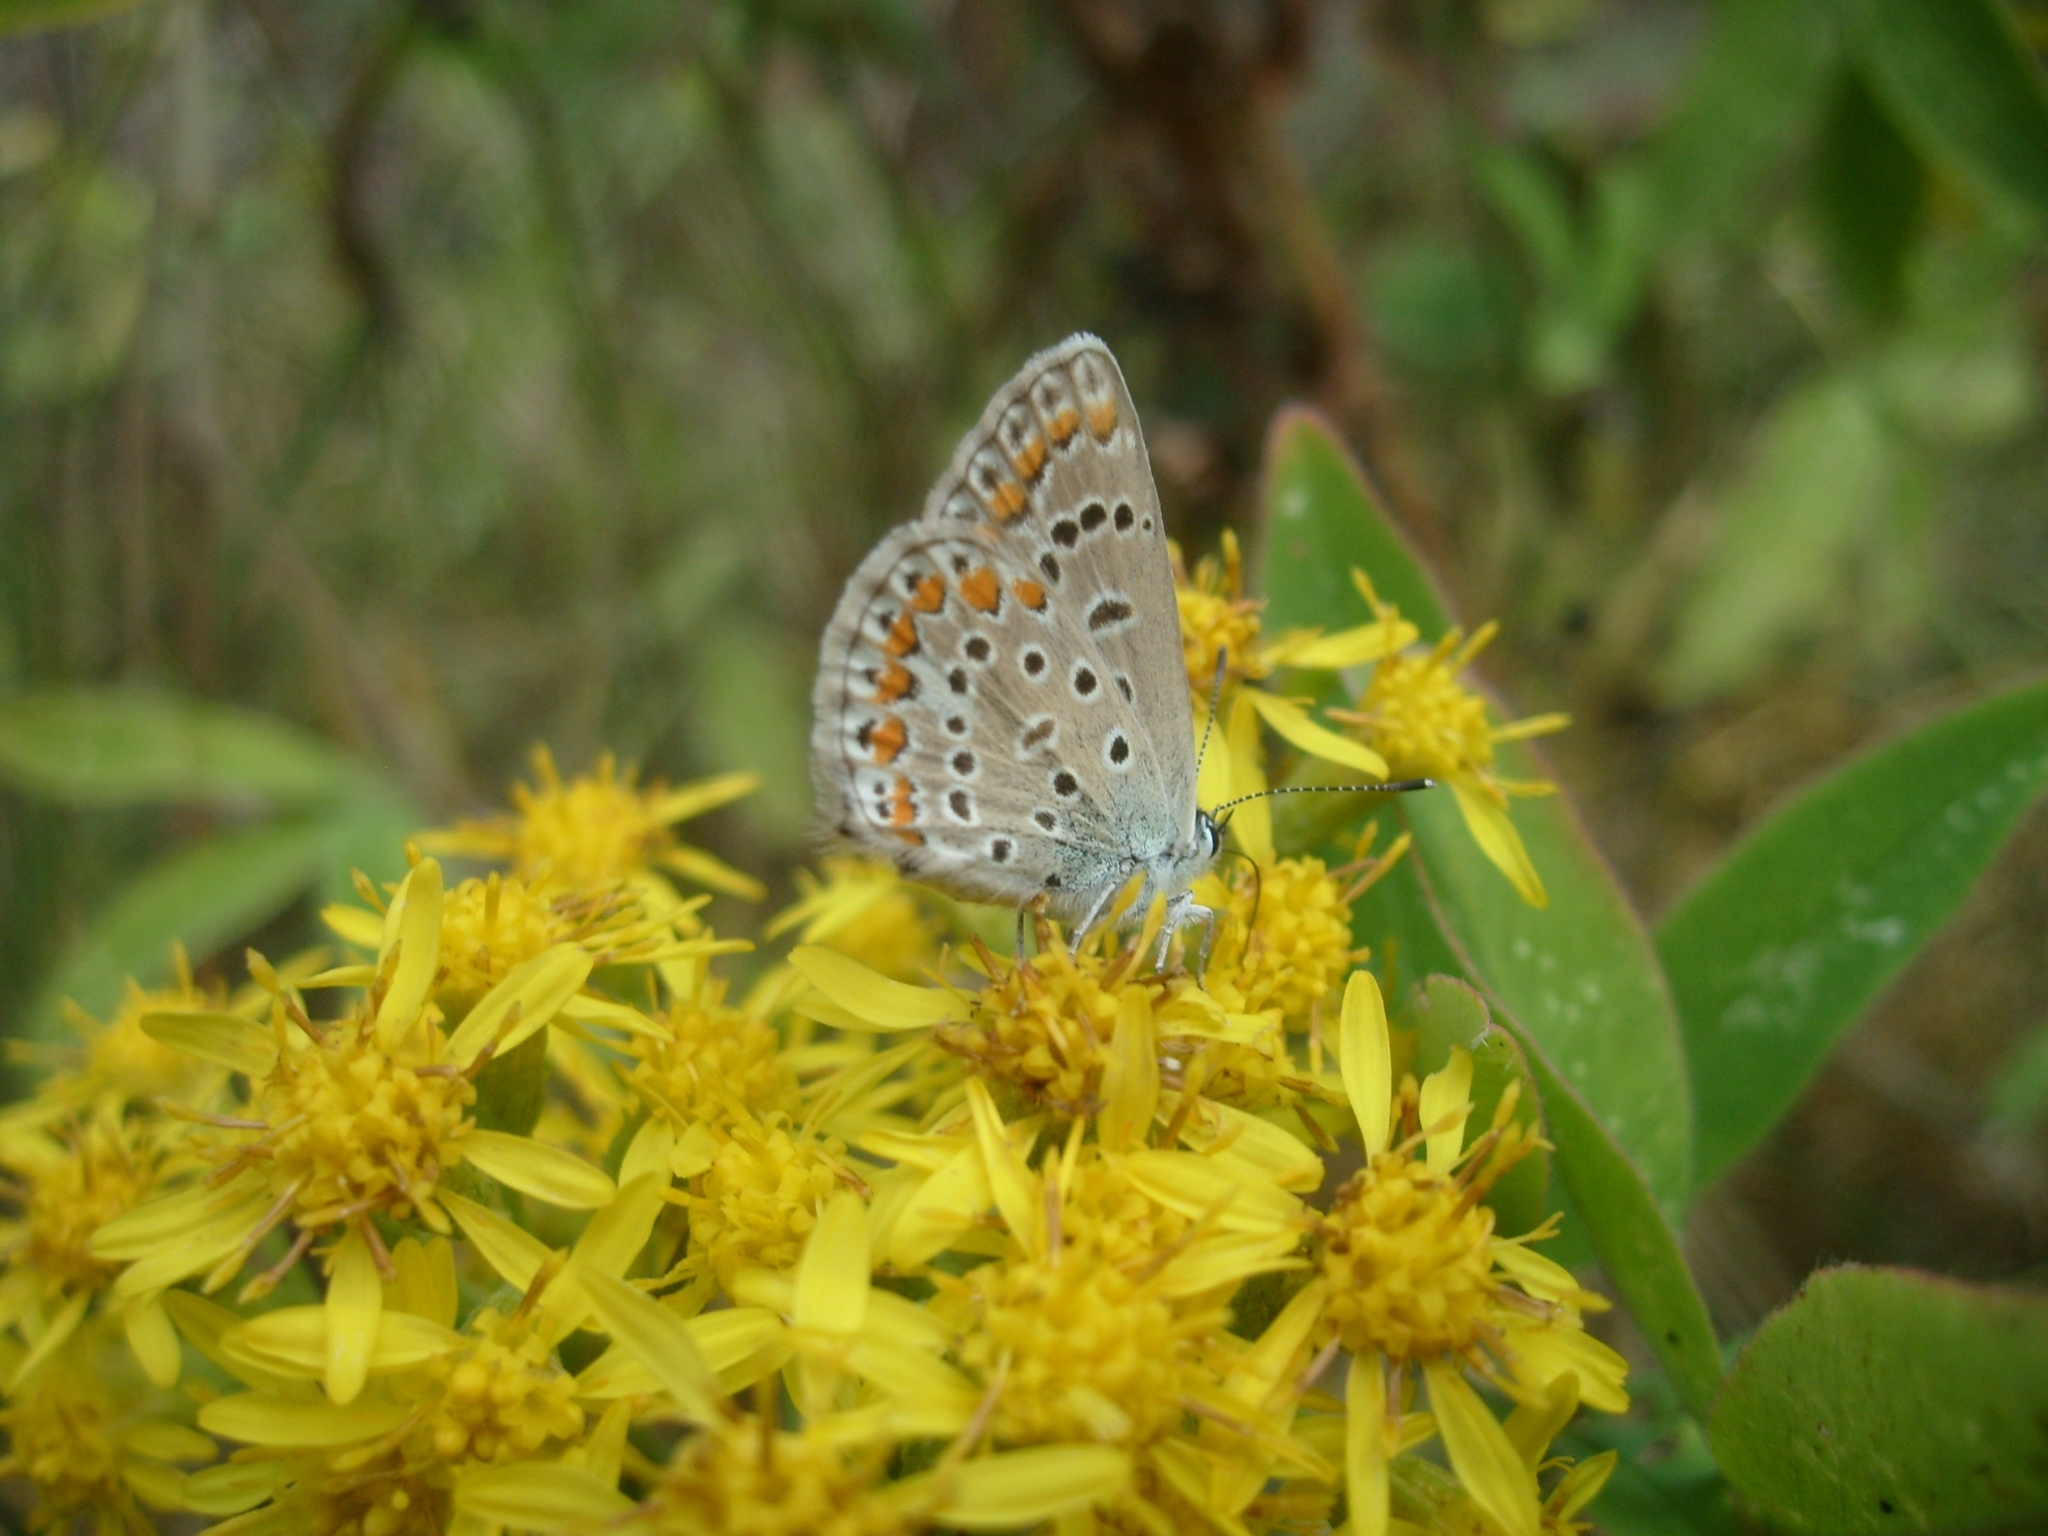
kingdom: Animalia
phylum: Arthropoda
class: Insecta
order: Lepidoptera
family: Lycaenidae
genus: Polyommatus
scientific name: Polyommatus icarus
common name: Common blue
